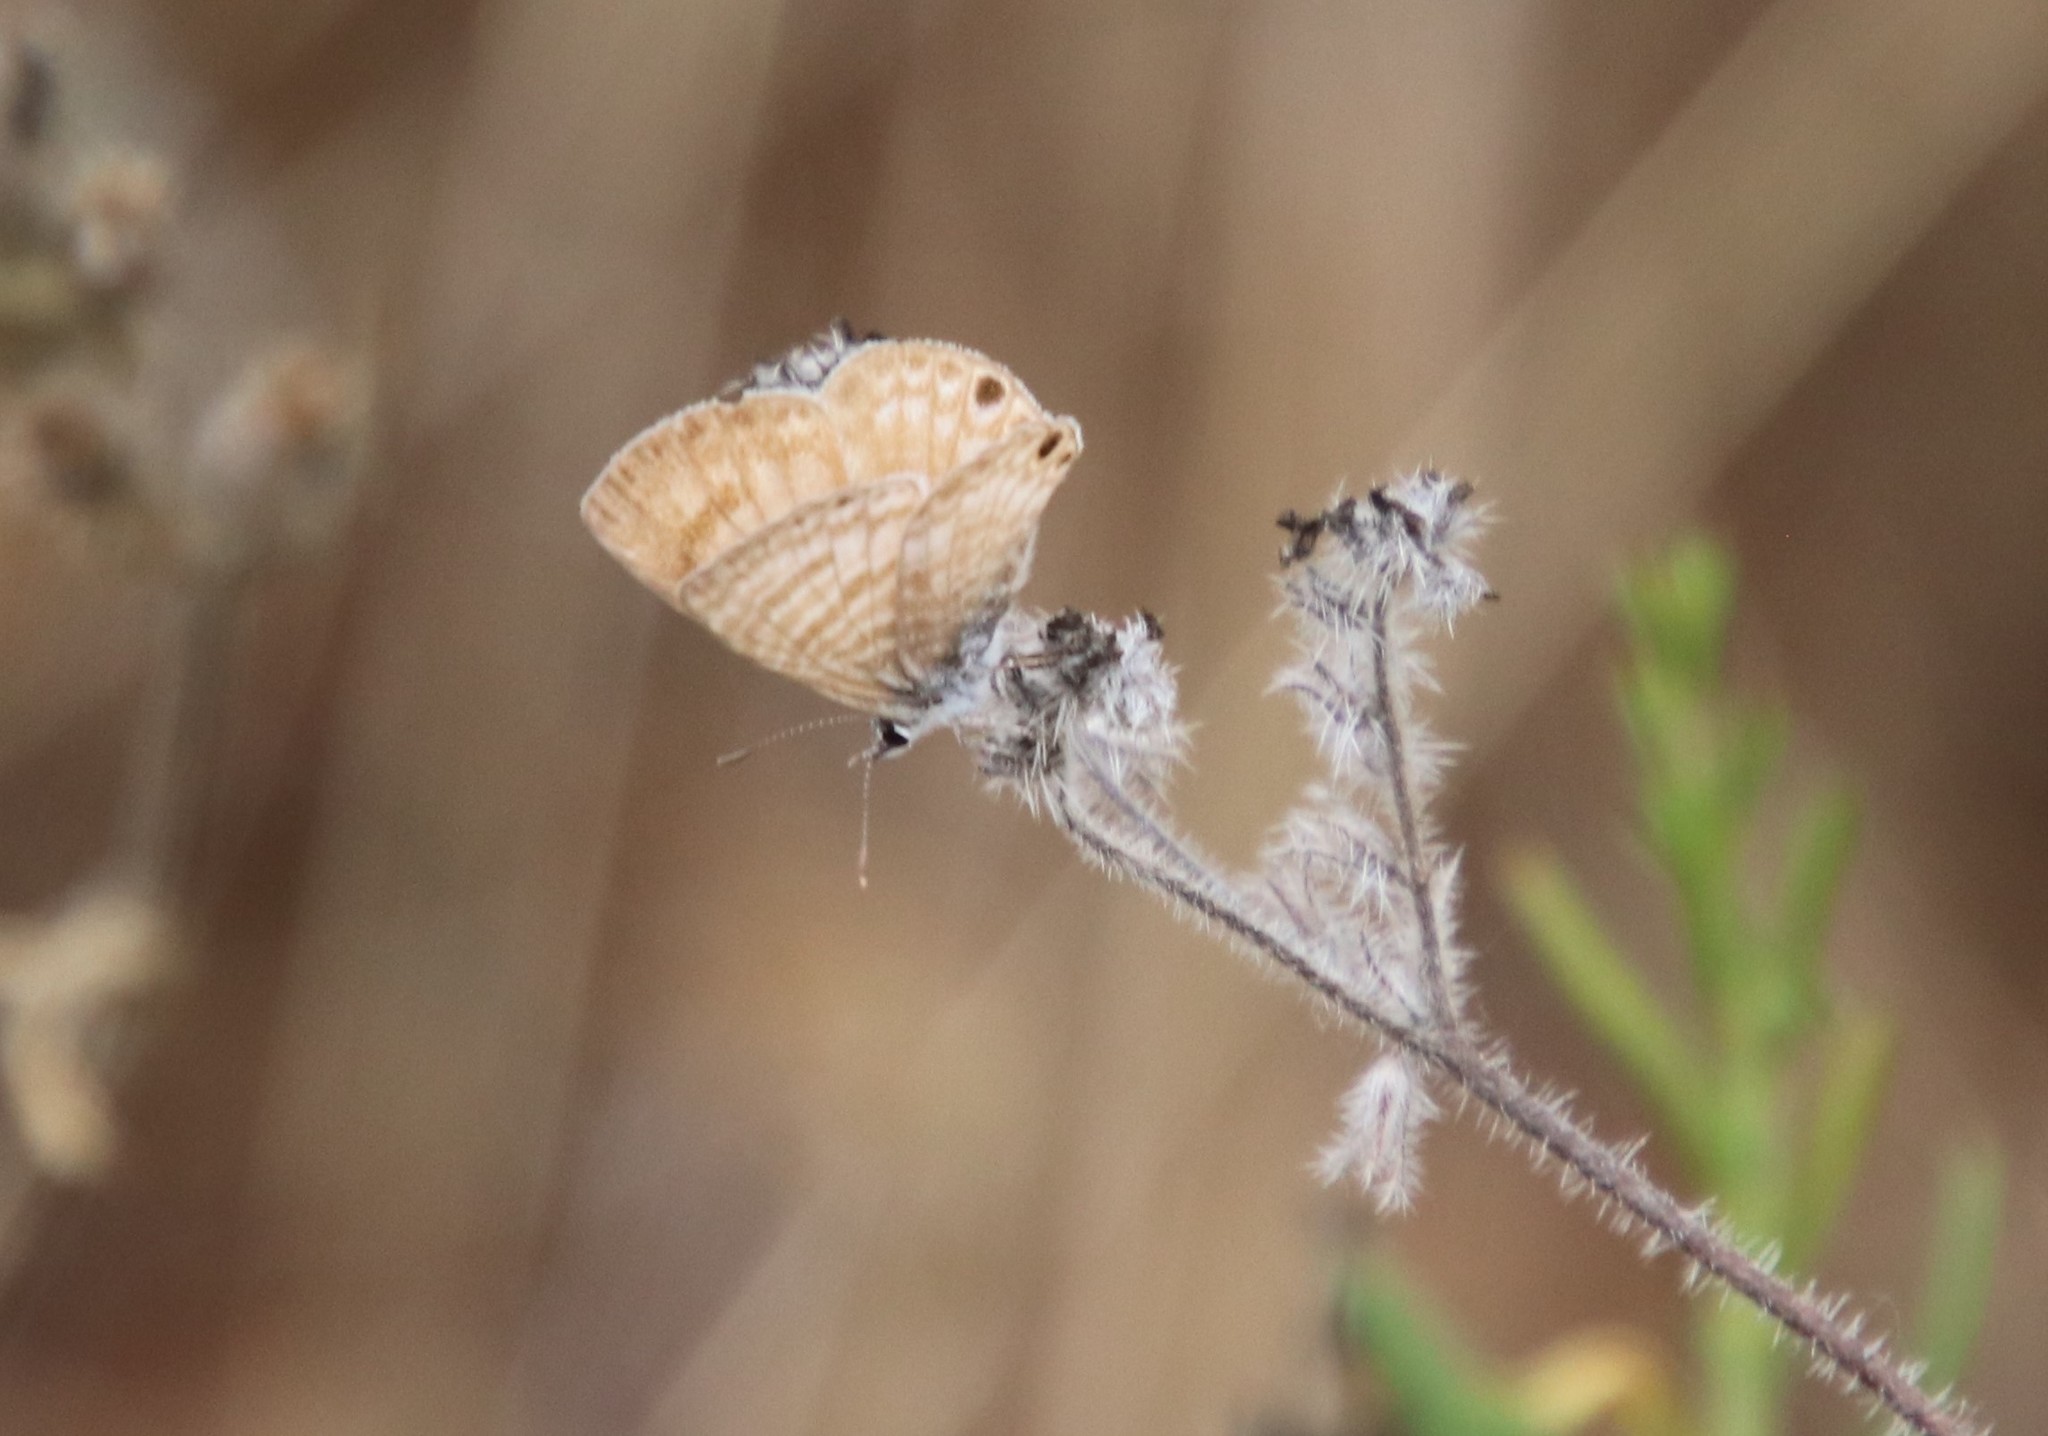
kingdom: Animalia
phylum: Arthropoda
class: Insecta
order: Lepidoptera
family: Lycaenidae
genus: Leptotes
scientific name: Leptotes marina
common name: Marine blue
